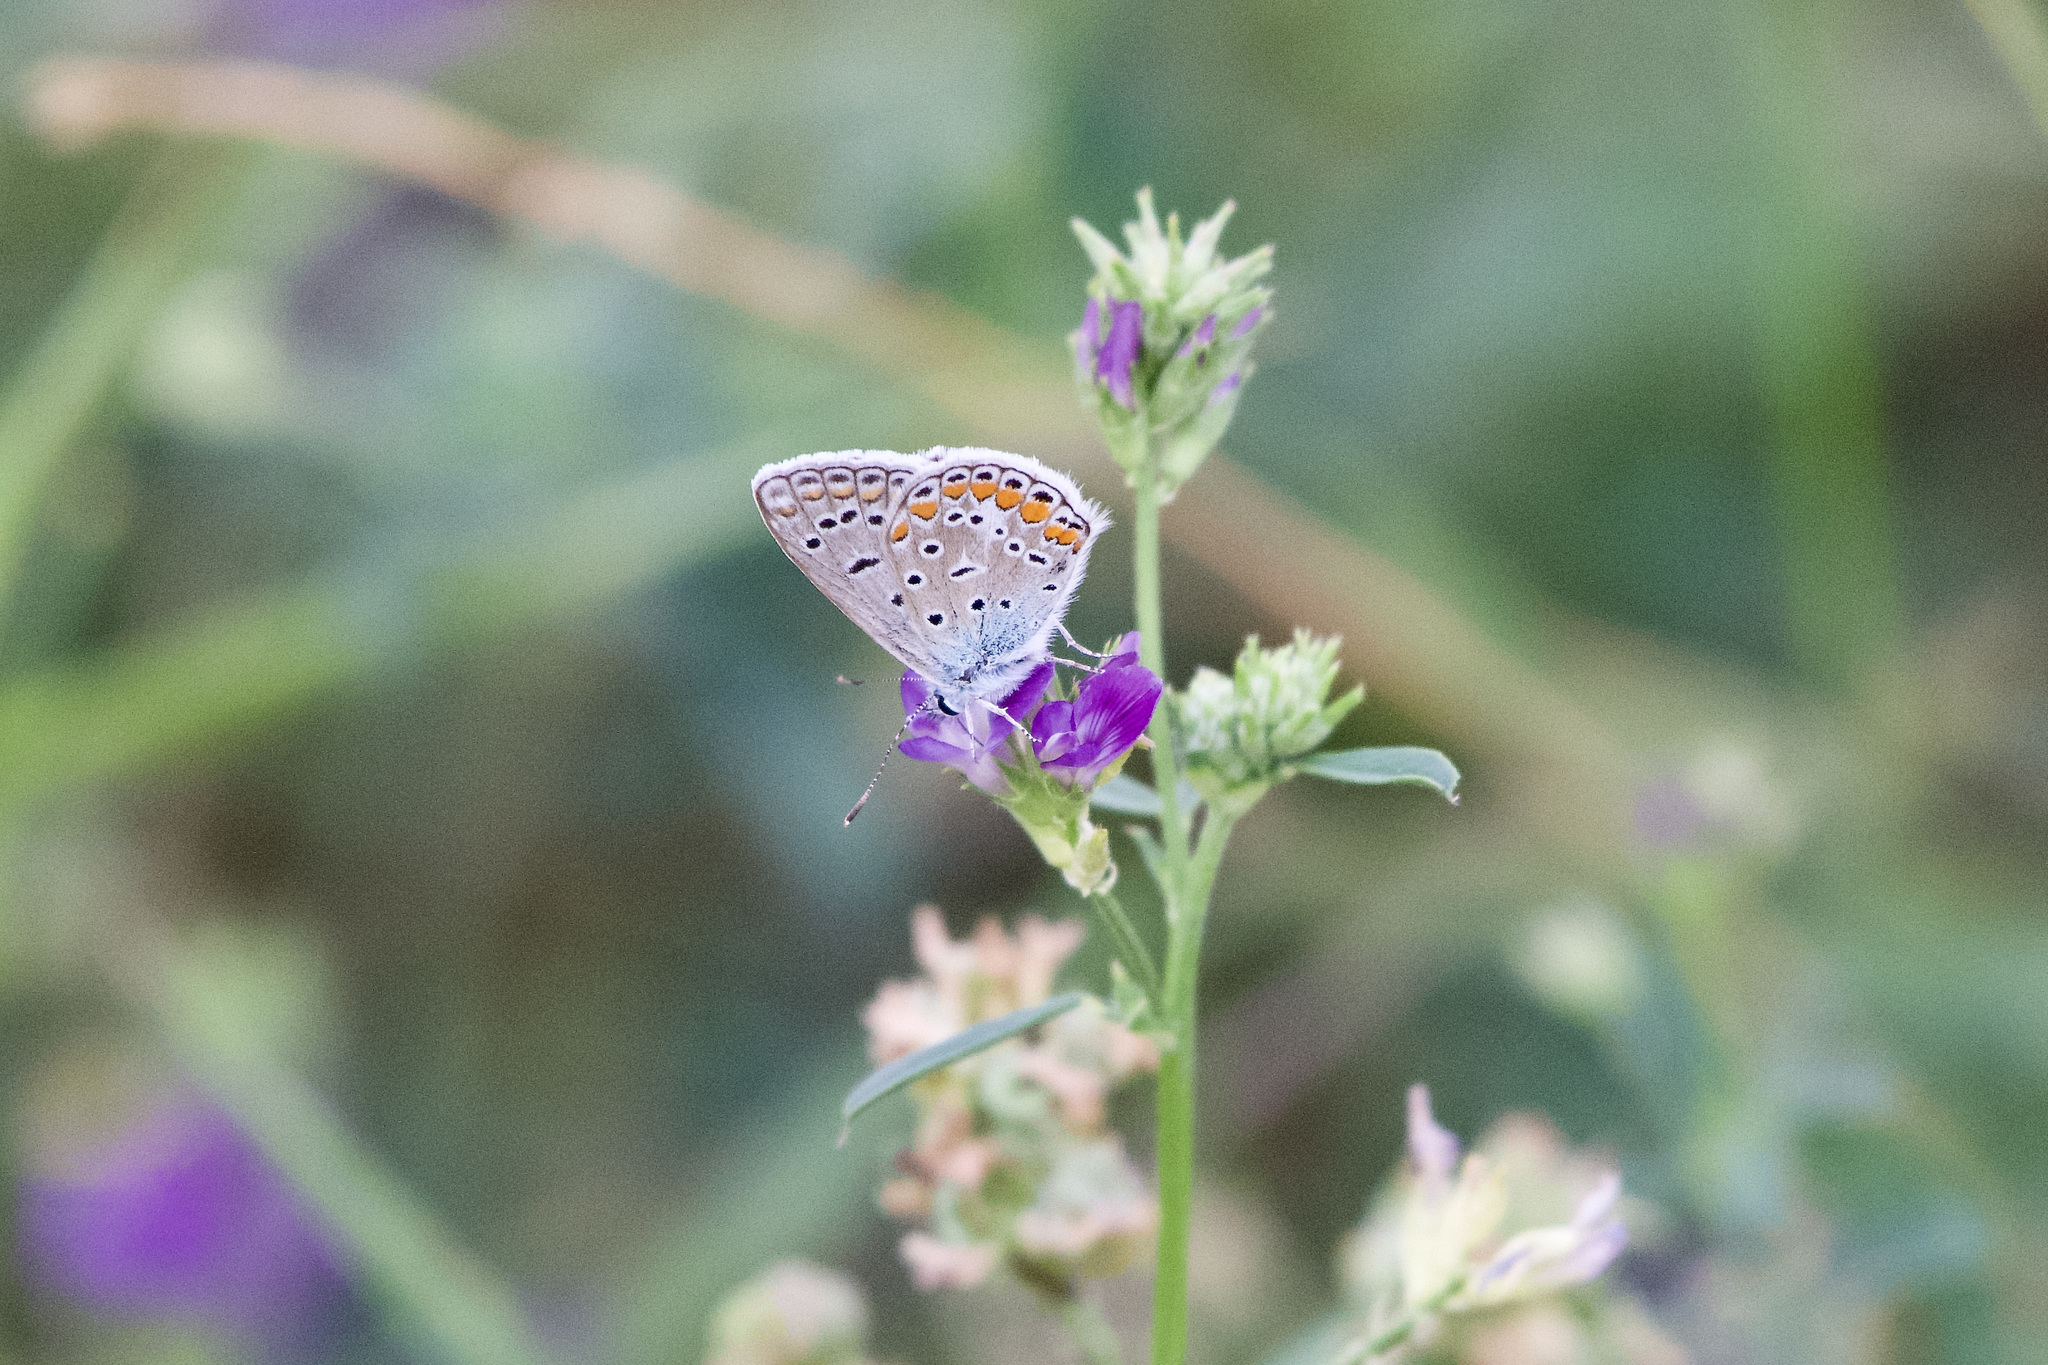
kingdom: Animalia
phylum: Arthropoda
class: Insecta
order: Lepidoptera
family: Lycaenidae
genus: Polyommatus
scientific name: Polyommatus icarus
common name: Common blue
